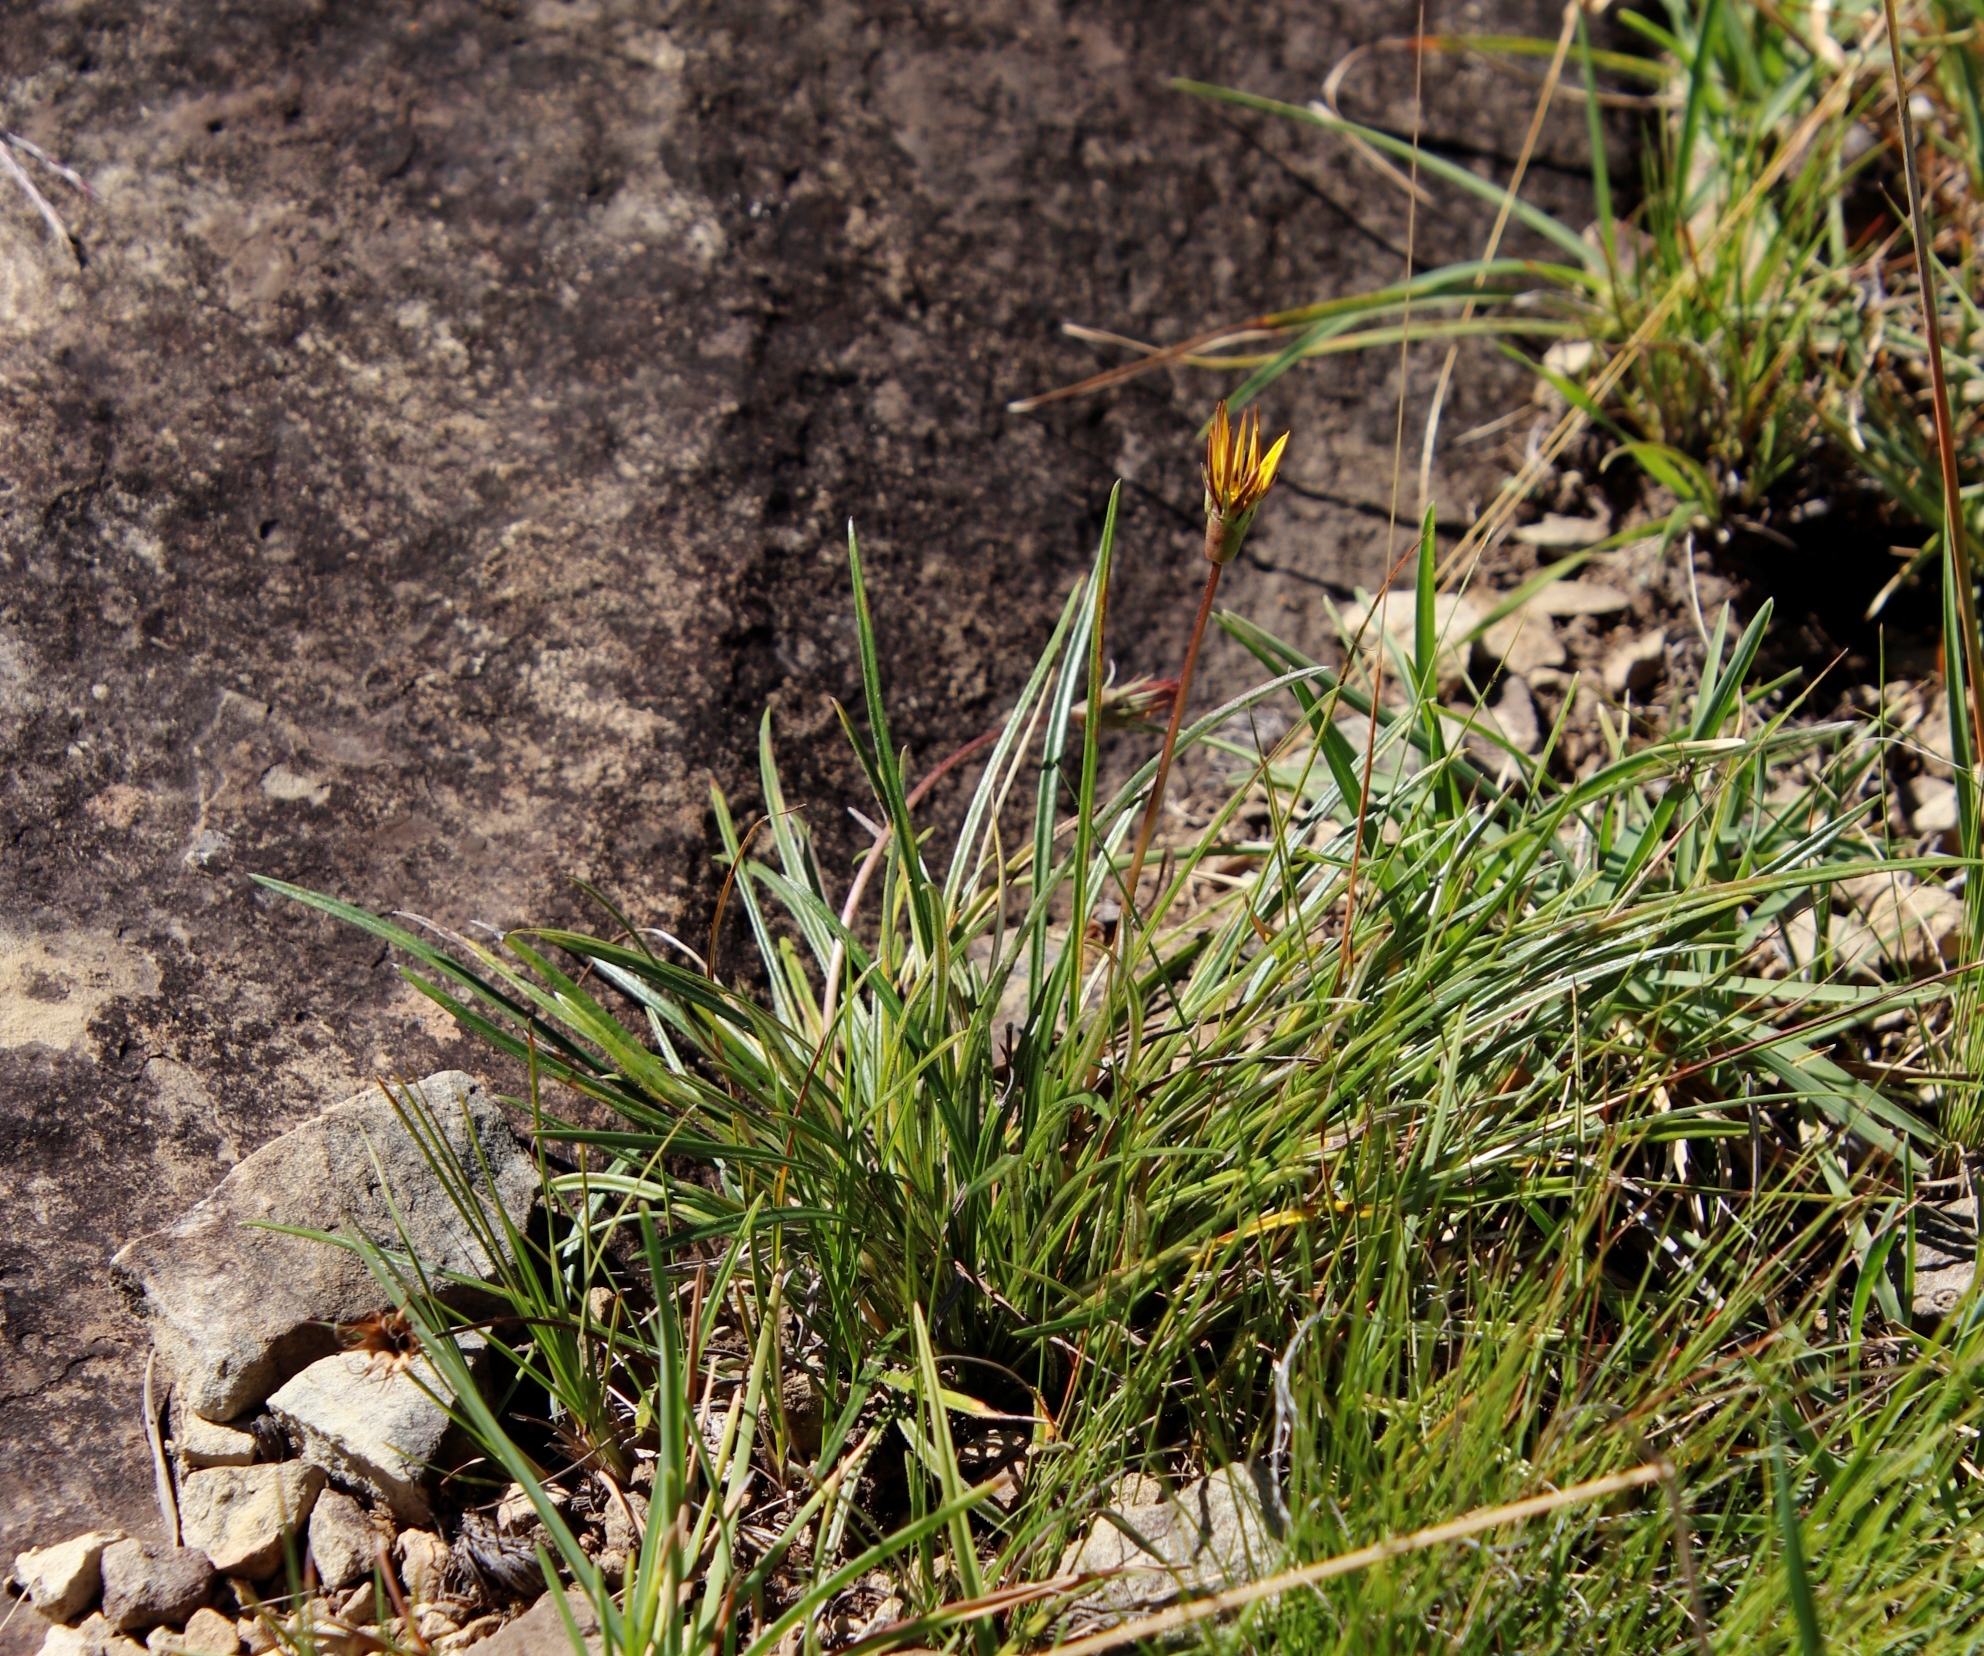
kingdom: Plantae
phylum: Tracheophyta
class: Magnoliopsida
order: Asterales
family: Asteraceae
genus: Gazania
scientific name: Gazania linearis
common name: Treasureflower
